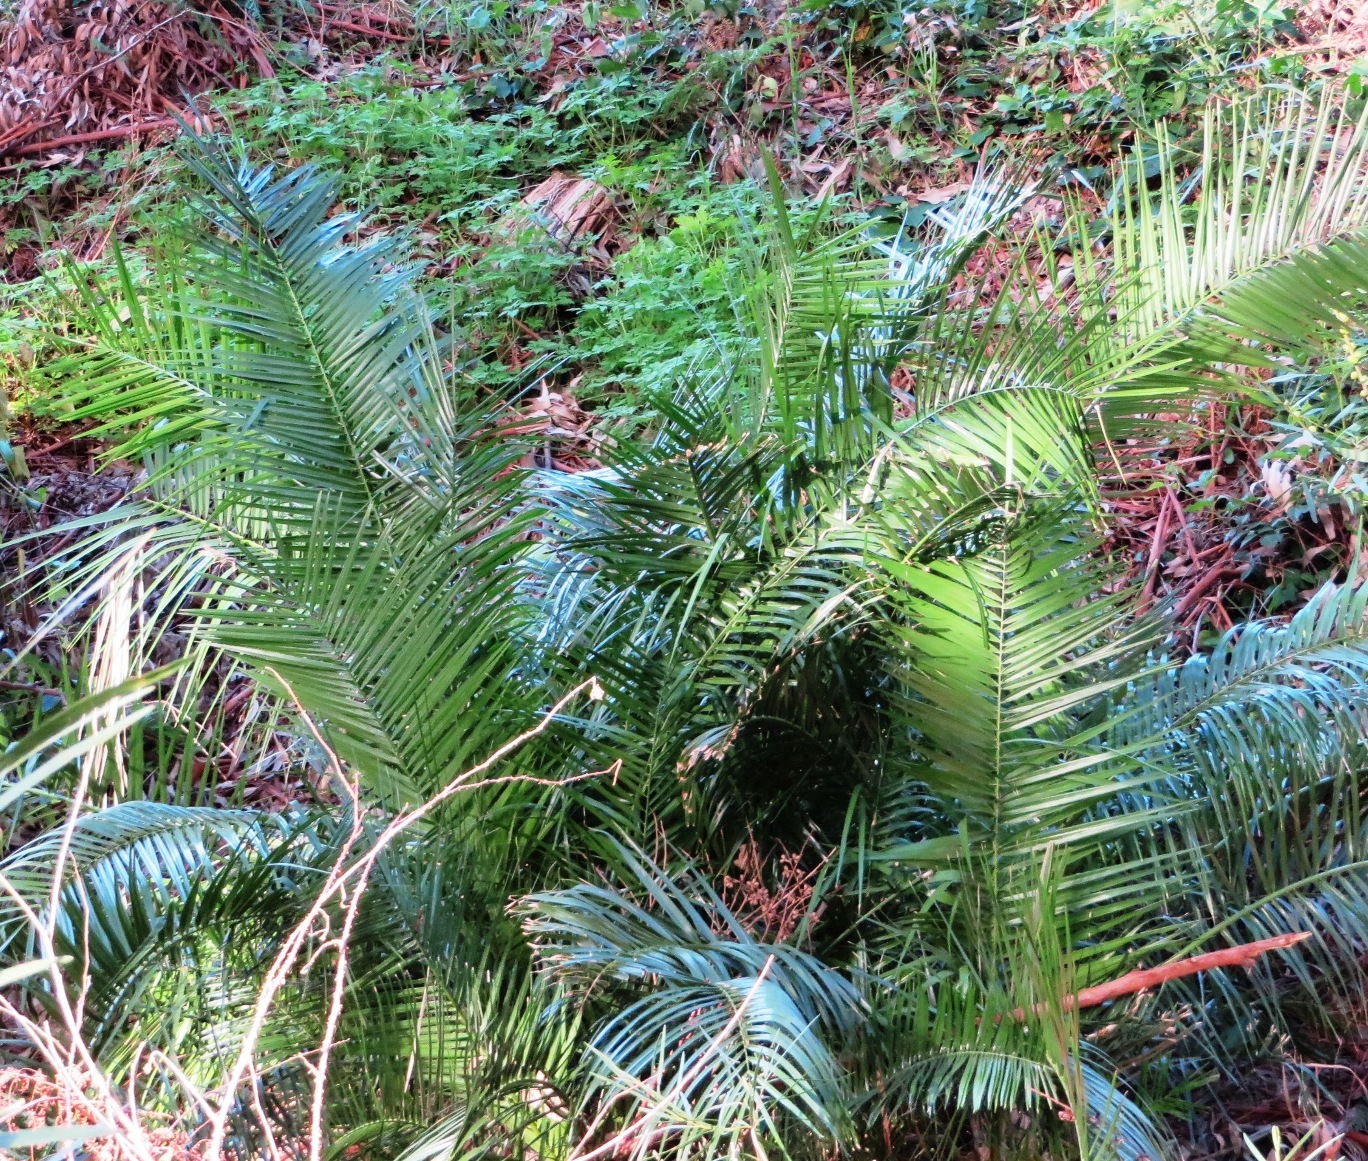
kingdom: Plantae
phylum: Tracheophyta
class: Liliopsida
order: Arecales
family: Arecaceae
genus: Phoenix
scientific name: Phoenix reclinata
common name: Senegal date palm
